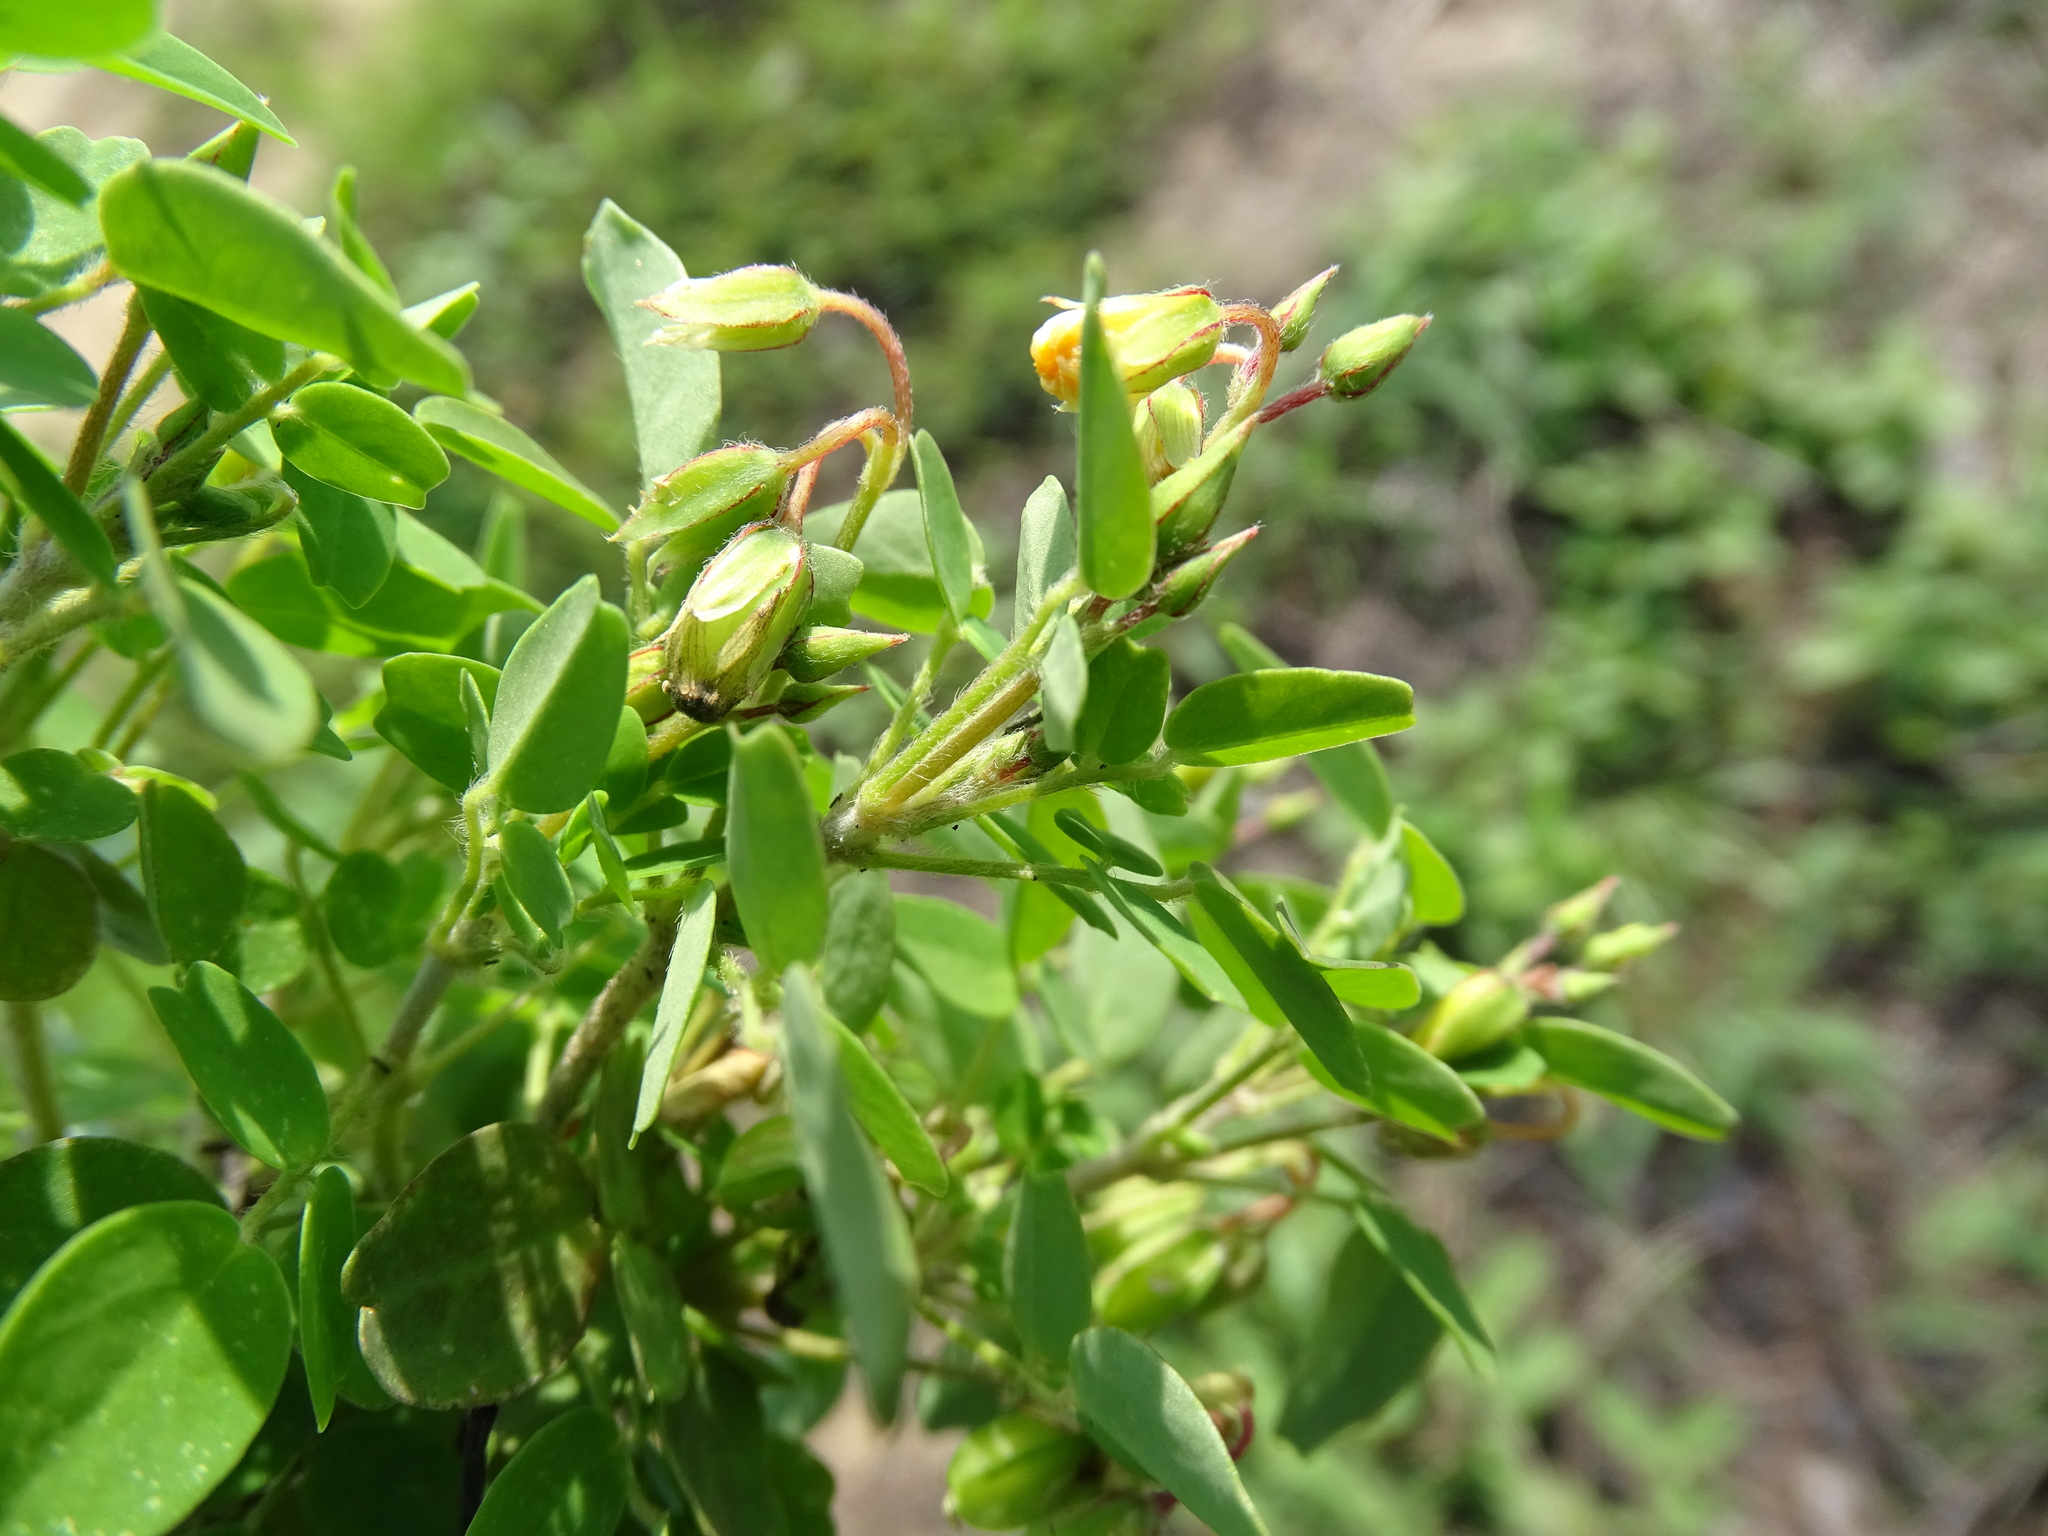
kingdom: Plantae
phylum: Tracheophyta
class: Magnoliopsida
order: Oxalidales
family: Oxalidaceae
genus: Oxalis
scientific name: Oxalis frutescens
